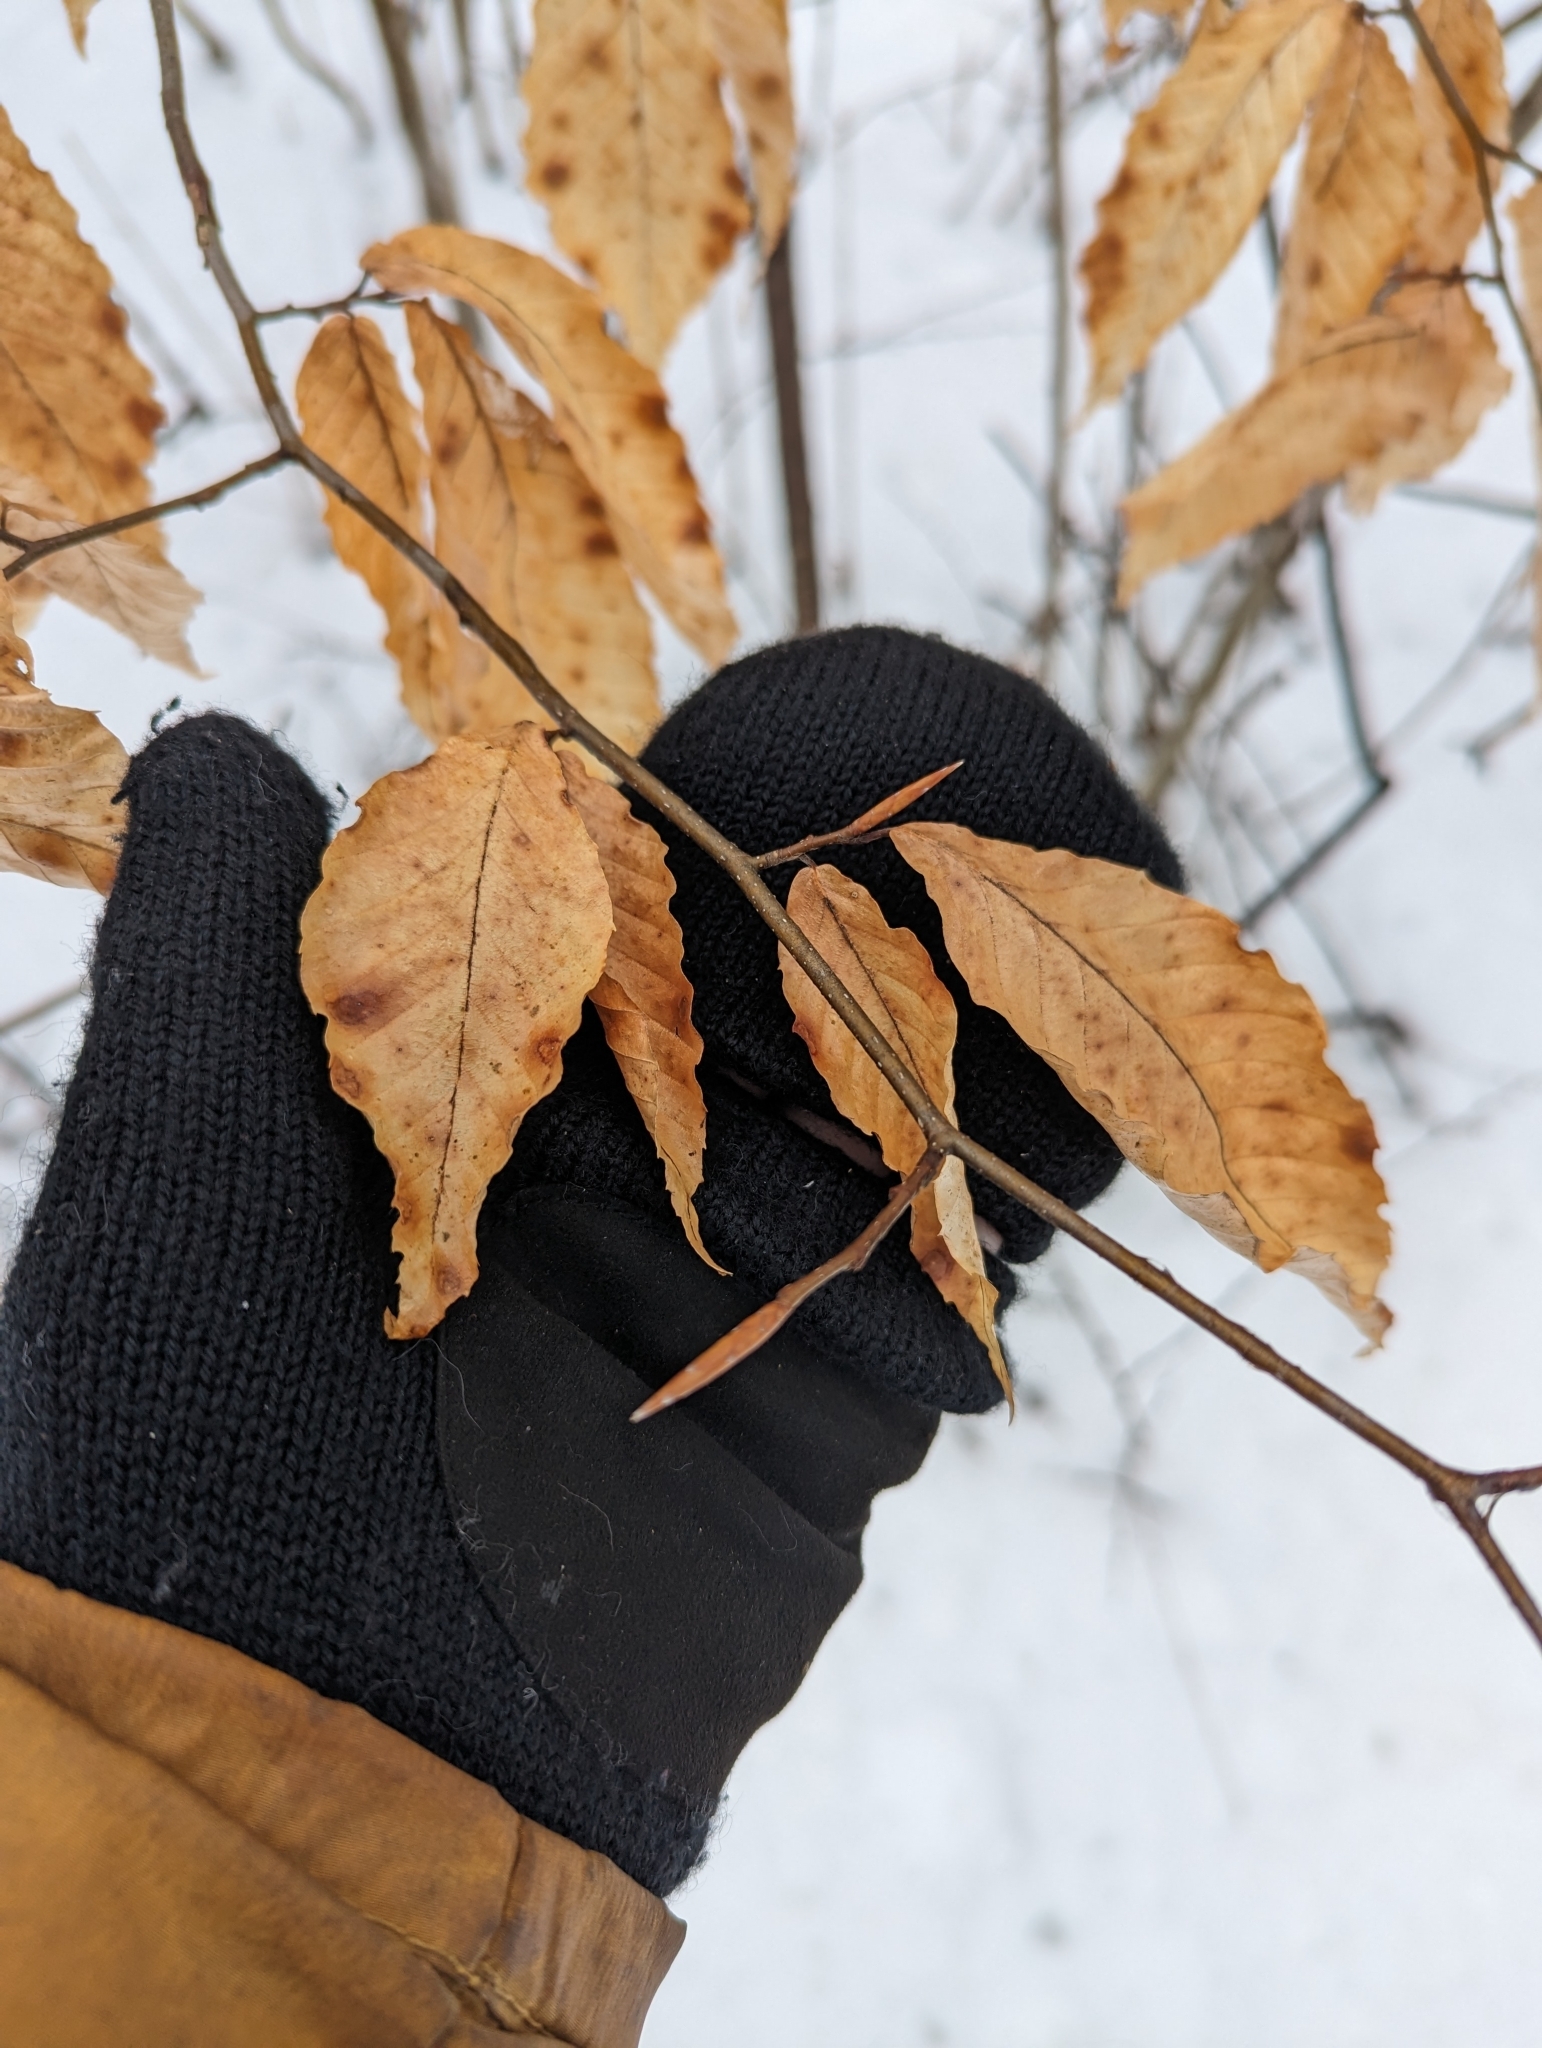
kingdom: Plantae
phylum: Tracheophyta
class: Magnoliopsida
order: Fagales
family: Fagaceae
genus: Fagus
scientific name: Fagus grandifolia
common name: American beech
